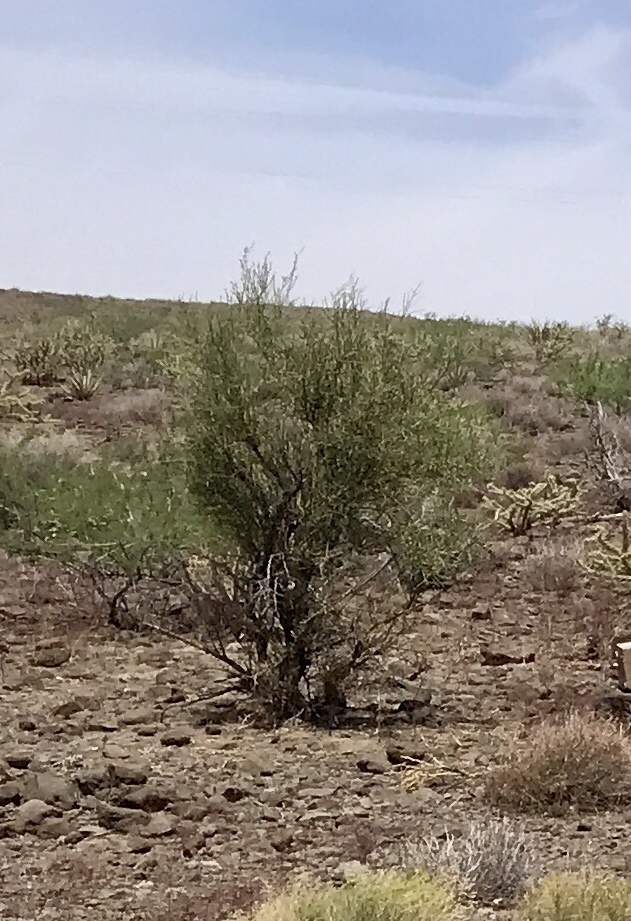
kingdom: Plantae
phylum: Tracheophyta
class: Magnoliopsida
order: Celastrales
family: Celastraceae
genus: Canotia
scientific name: Canotia holacantha
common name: Crucifixion thorns
